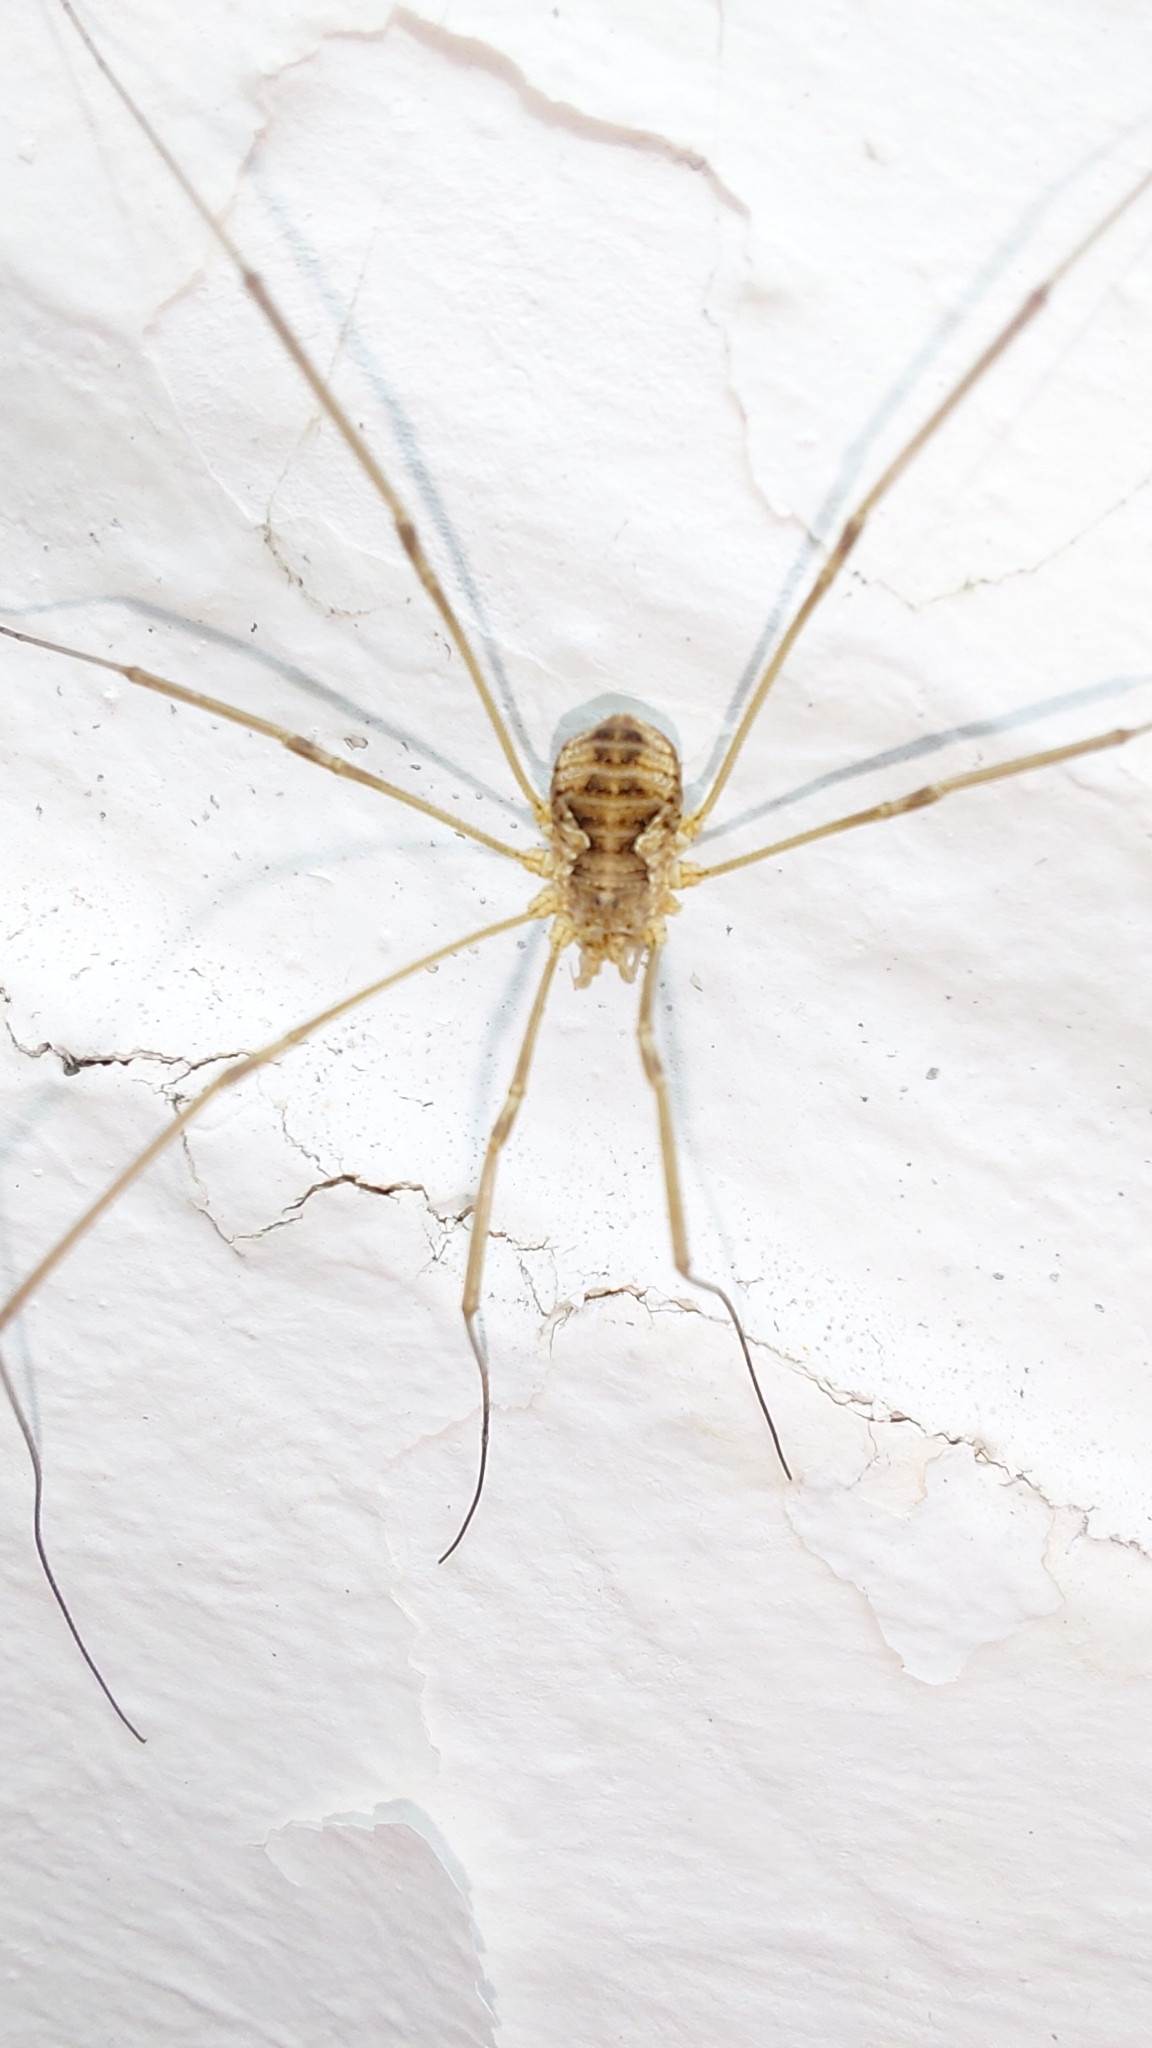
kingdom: Animalia
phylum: Arthropoda
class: Arachnida
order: Opiliones
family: Phalangiidae
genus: Phalangium
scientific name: Phalangium opilio
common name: Daddy longleg
